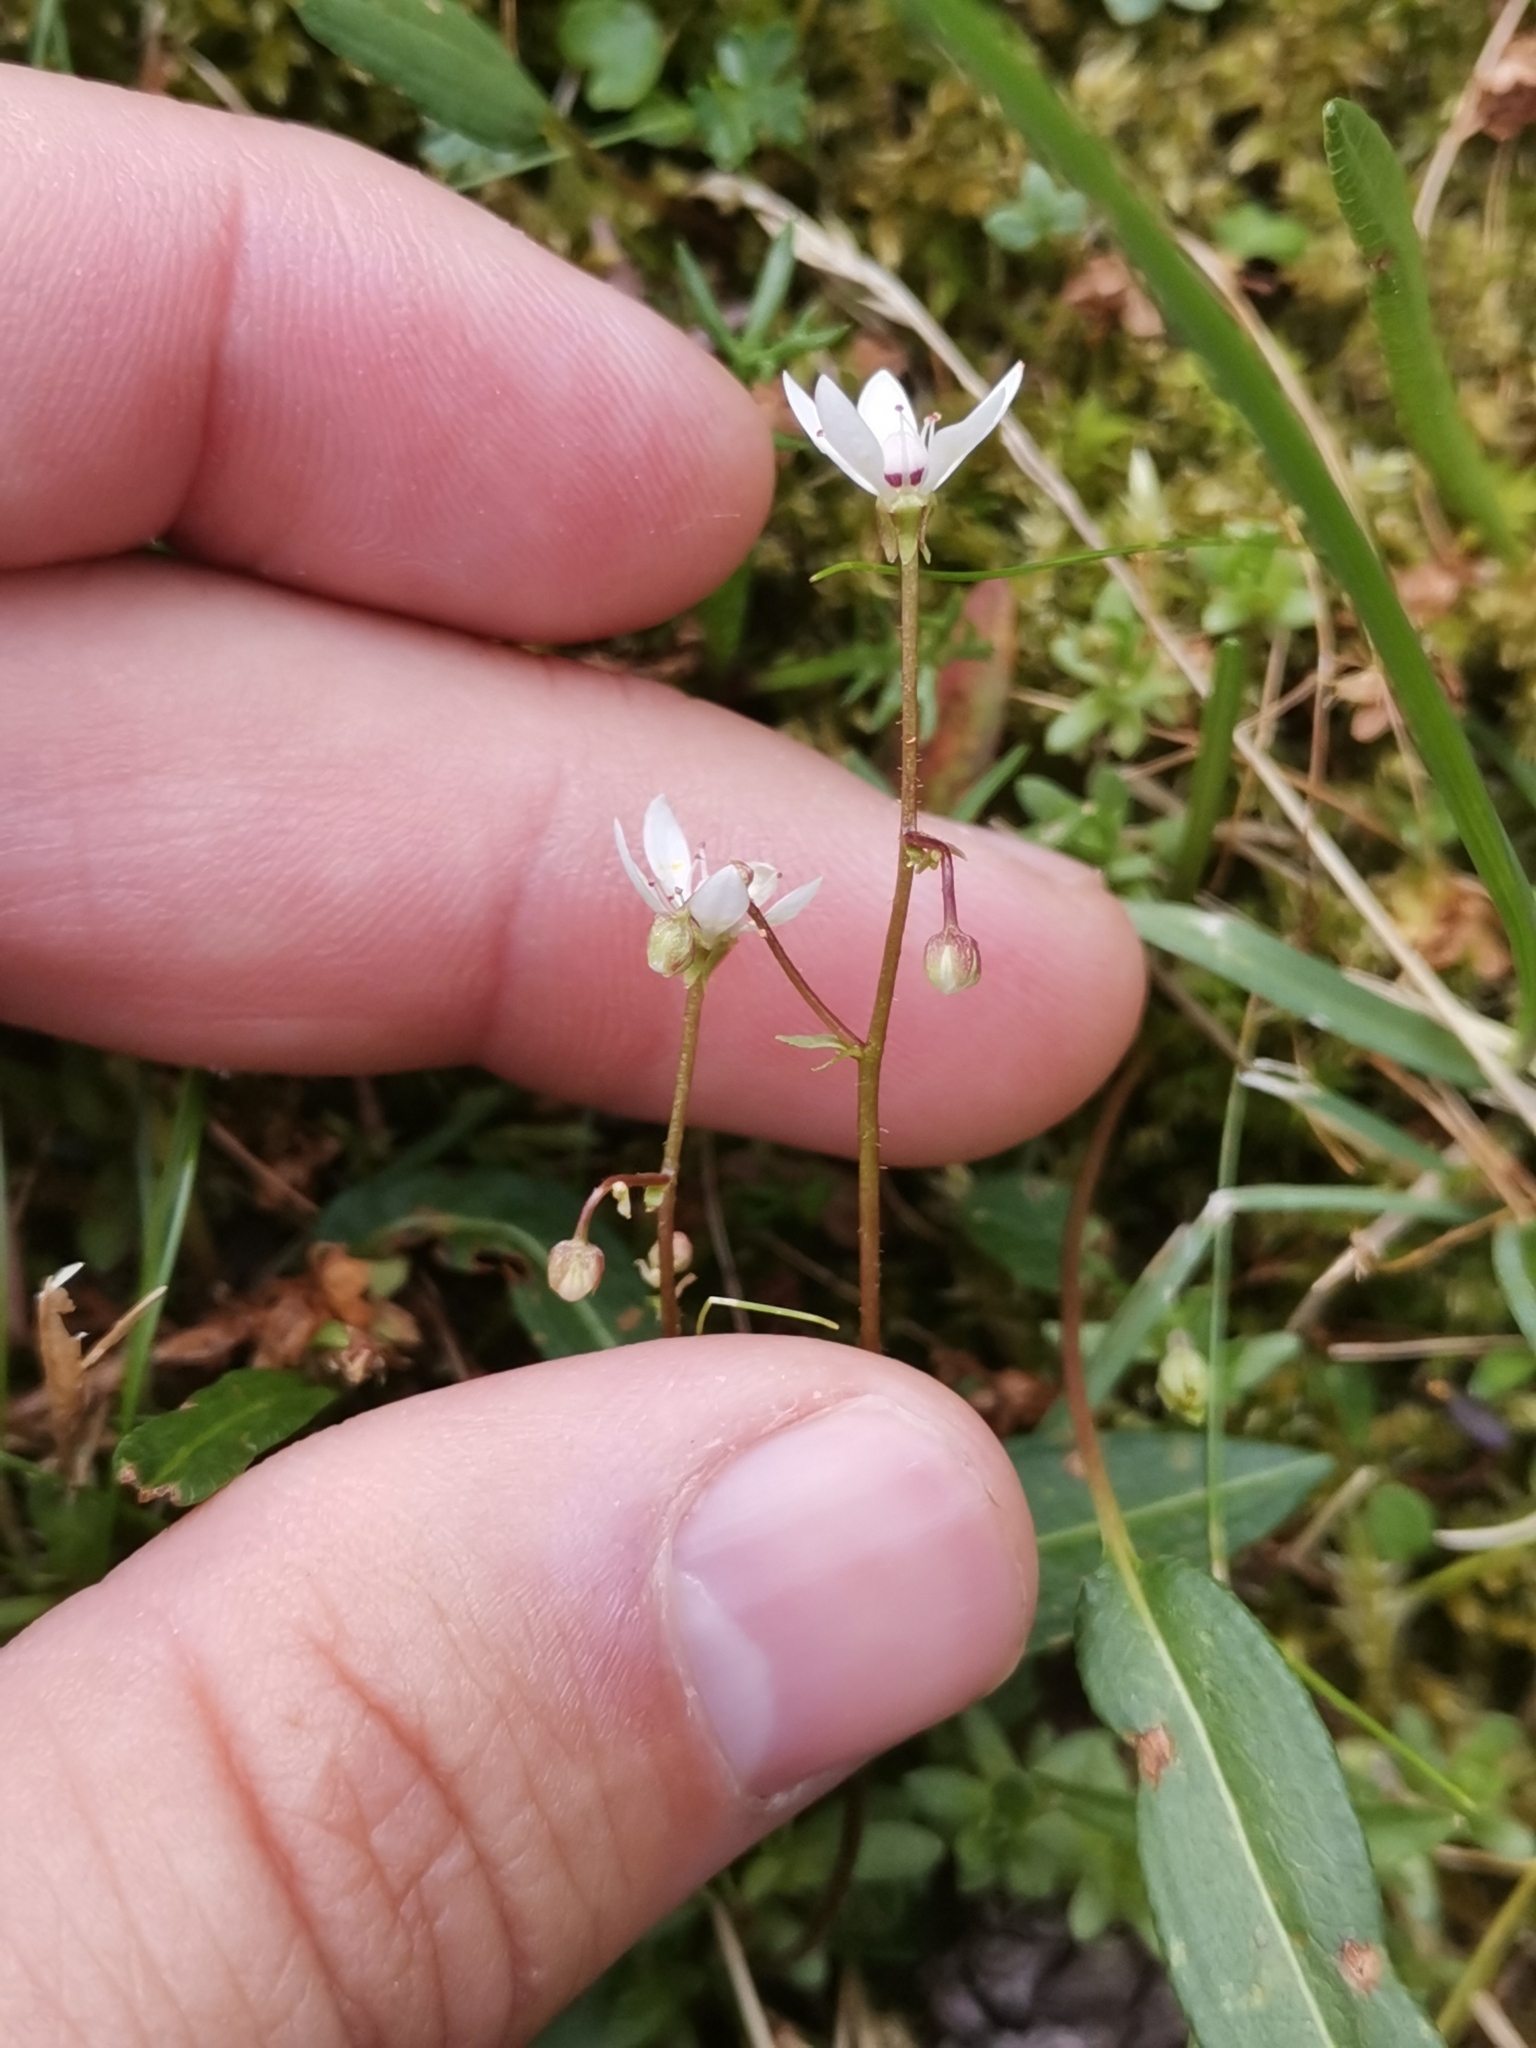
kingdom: Plantae
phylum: Tracheophyta
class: Magnoliopsida
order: Saxifragales
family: Saxifragaceae
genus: Micranthes
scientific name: Micranthes stellaris
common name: Starry saxifrage
